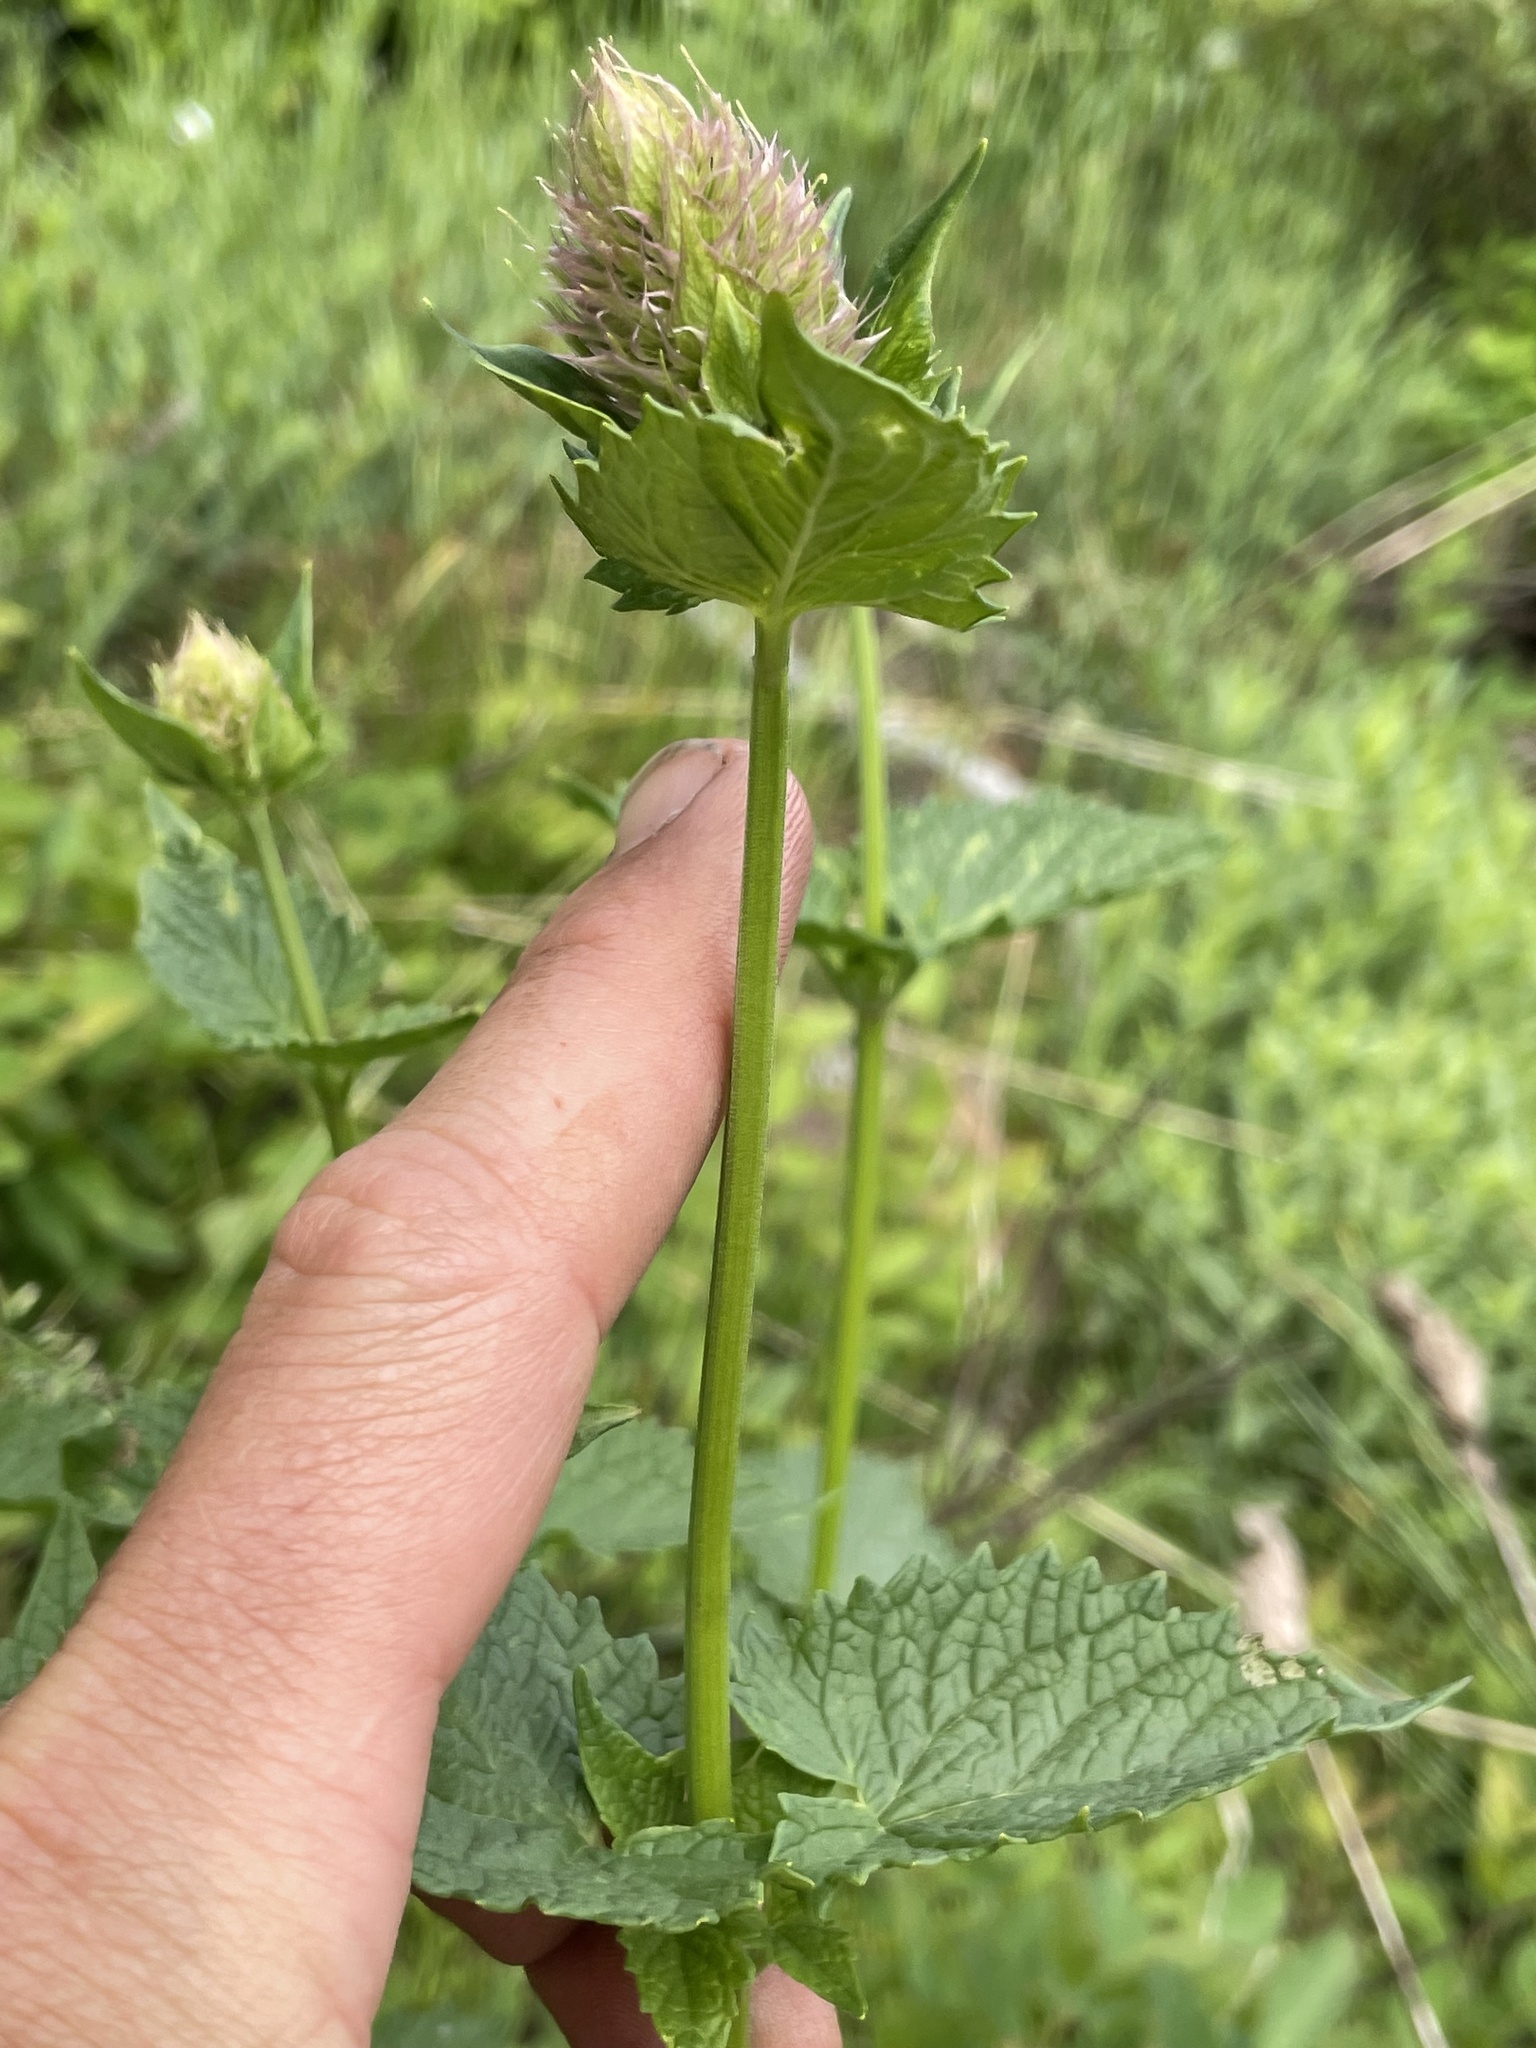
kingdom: Plantae
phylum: Tracheophyta
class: Magnoliopsida
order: Lamiales
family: Lamiaceae
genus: Agastache
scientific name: Agastache urticifolia
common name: Horsemint giant hyssop
